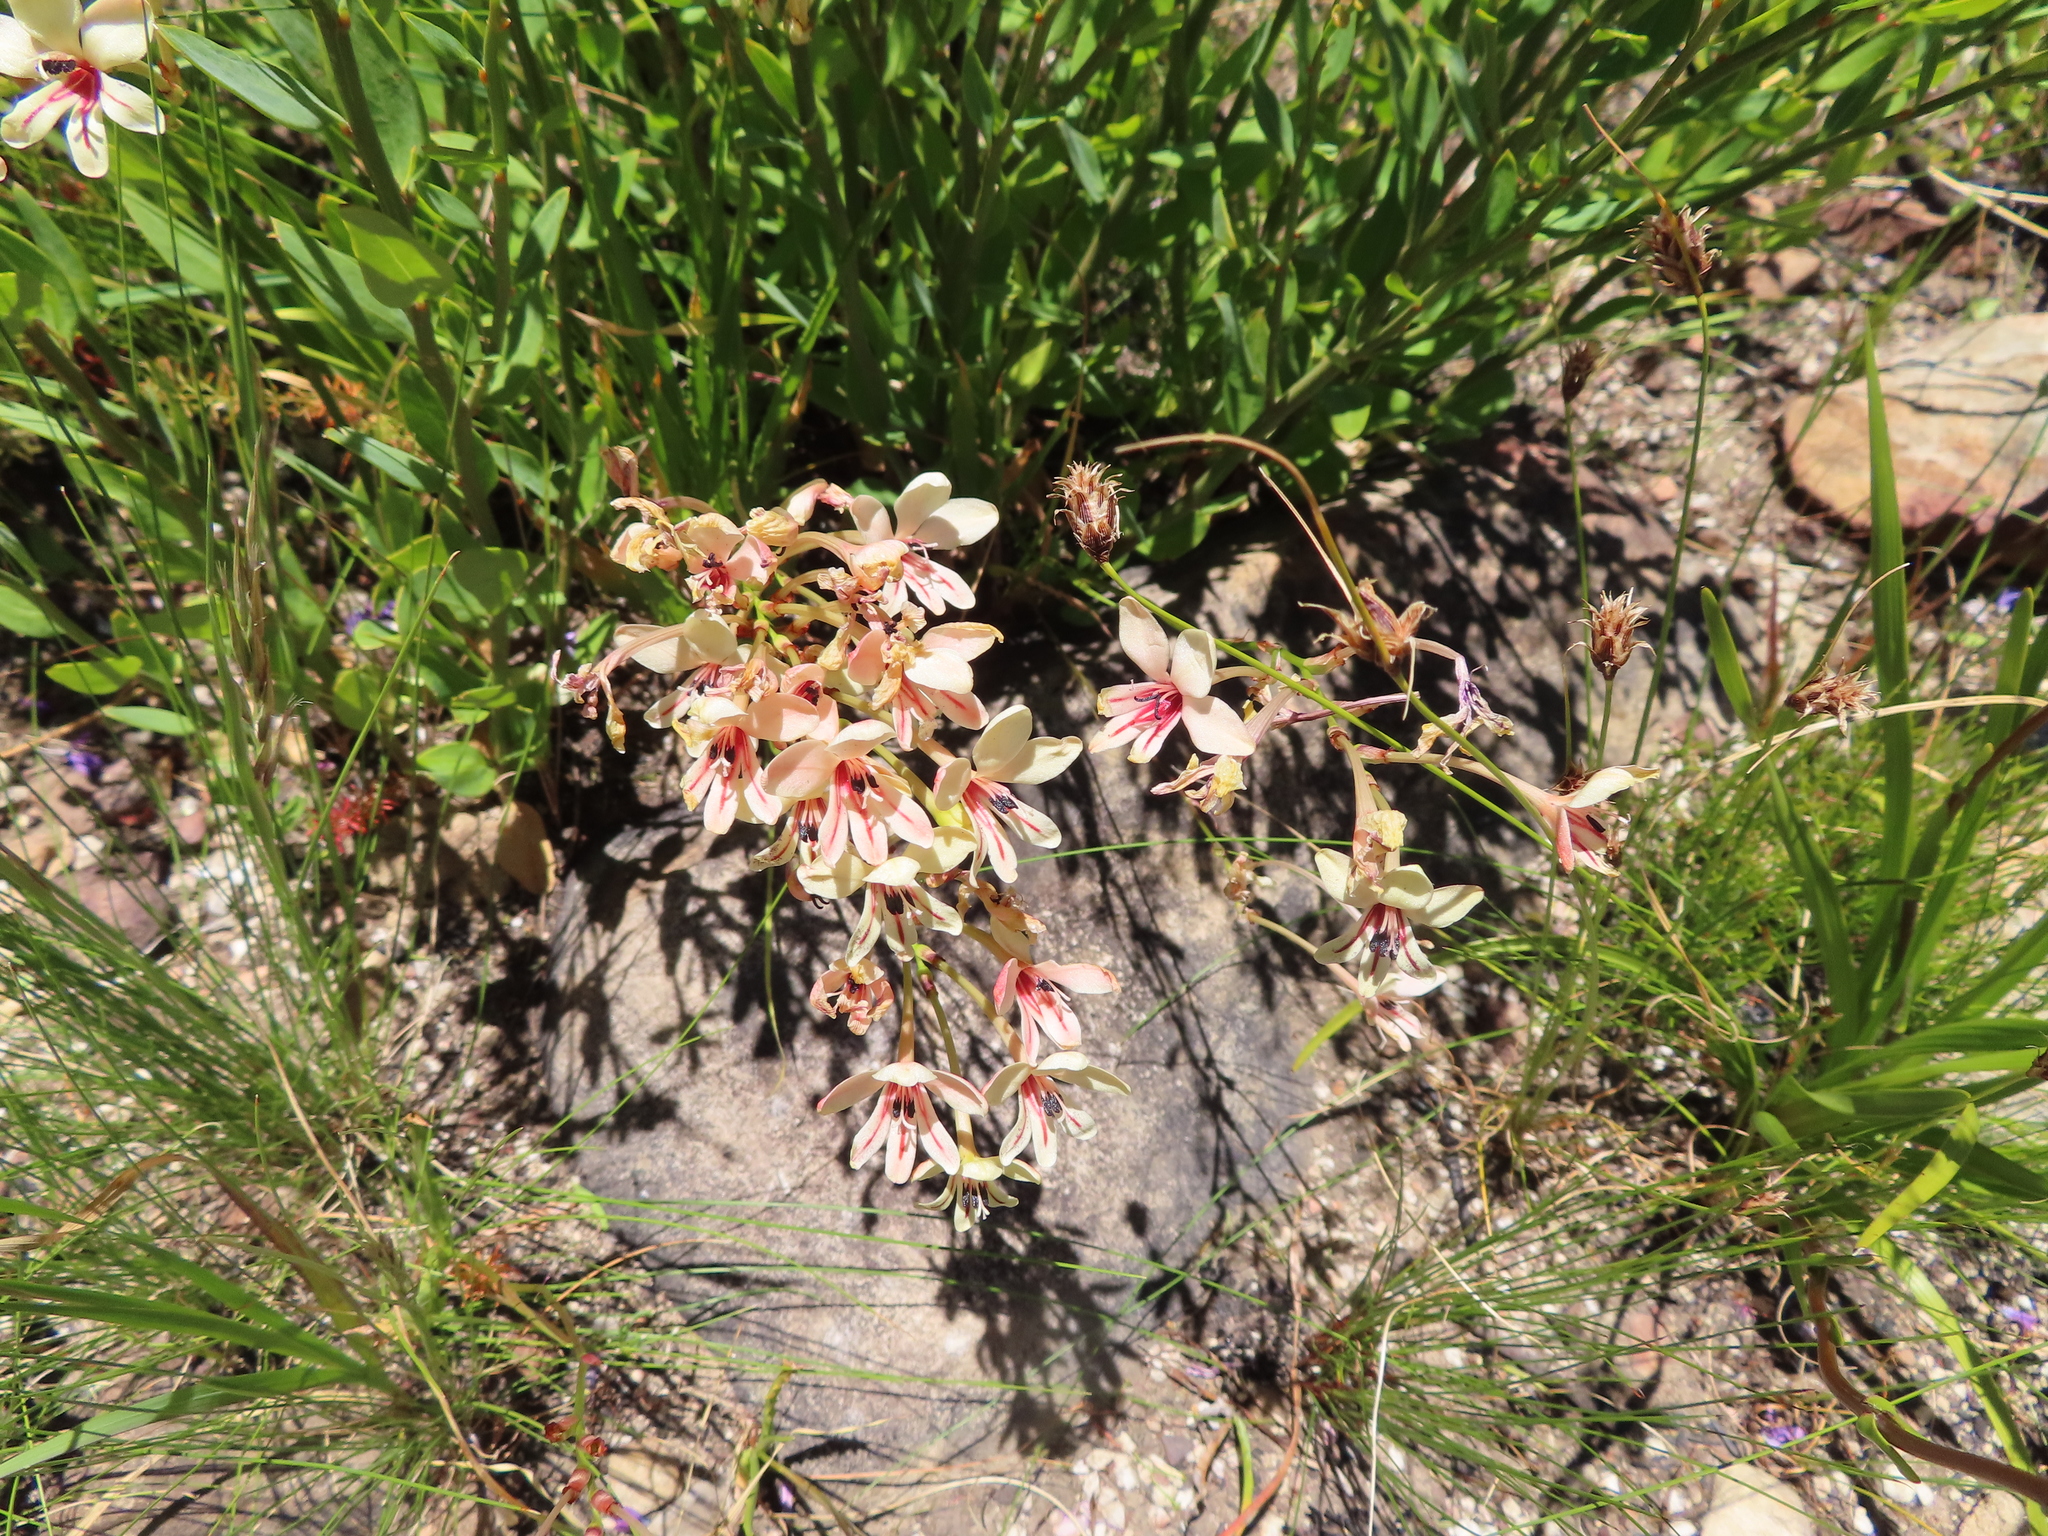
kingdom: Plantae
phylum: Tracheophyta
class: Liliopsida
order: Asparagales
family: Iridaceae
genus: Tritonia
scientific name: Tritonia undulata
